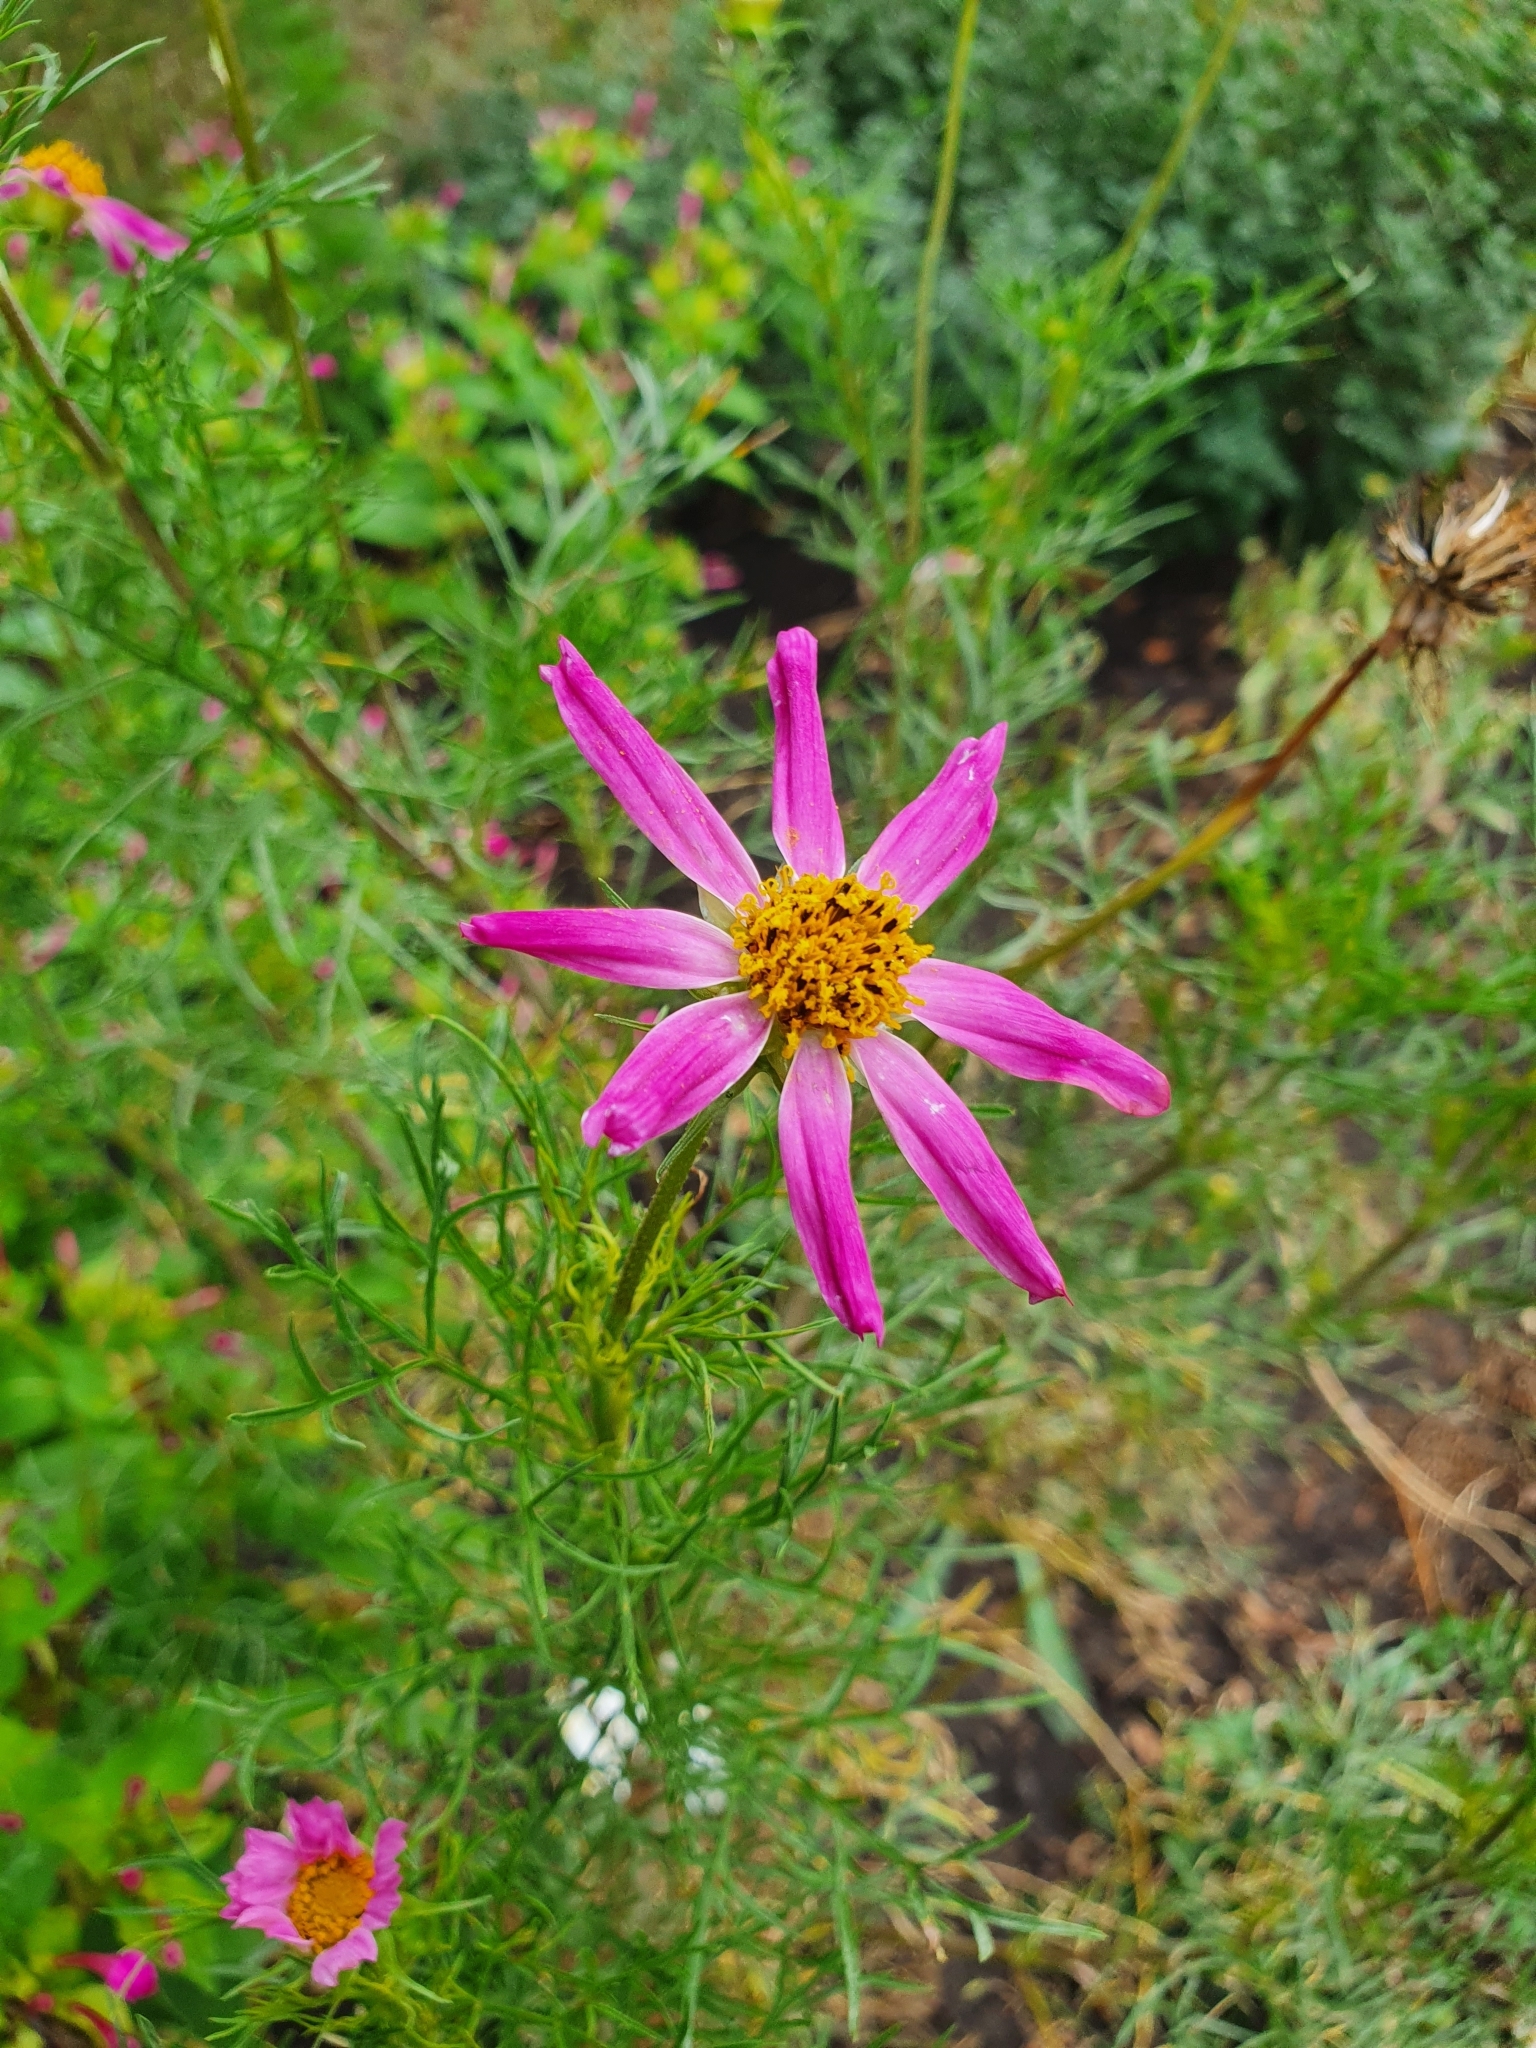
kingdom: Plantae
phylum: Tracheophyta
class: Magnoliopsida
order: Asterales
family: Asteraceae
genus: Cosmos
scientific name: Cosmos bipinnatus
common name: Garden cosmos
